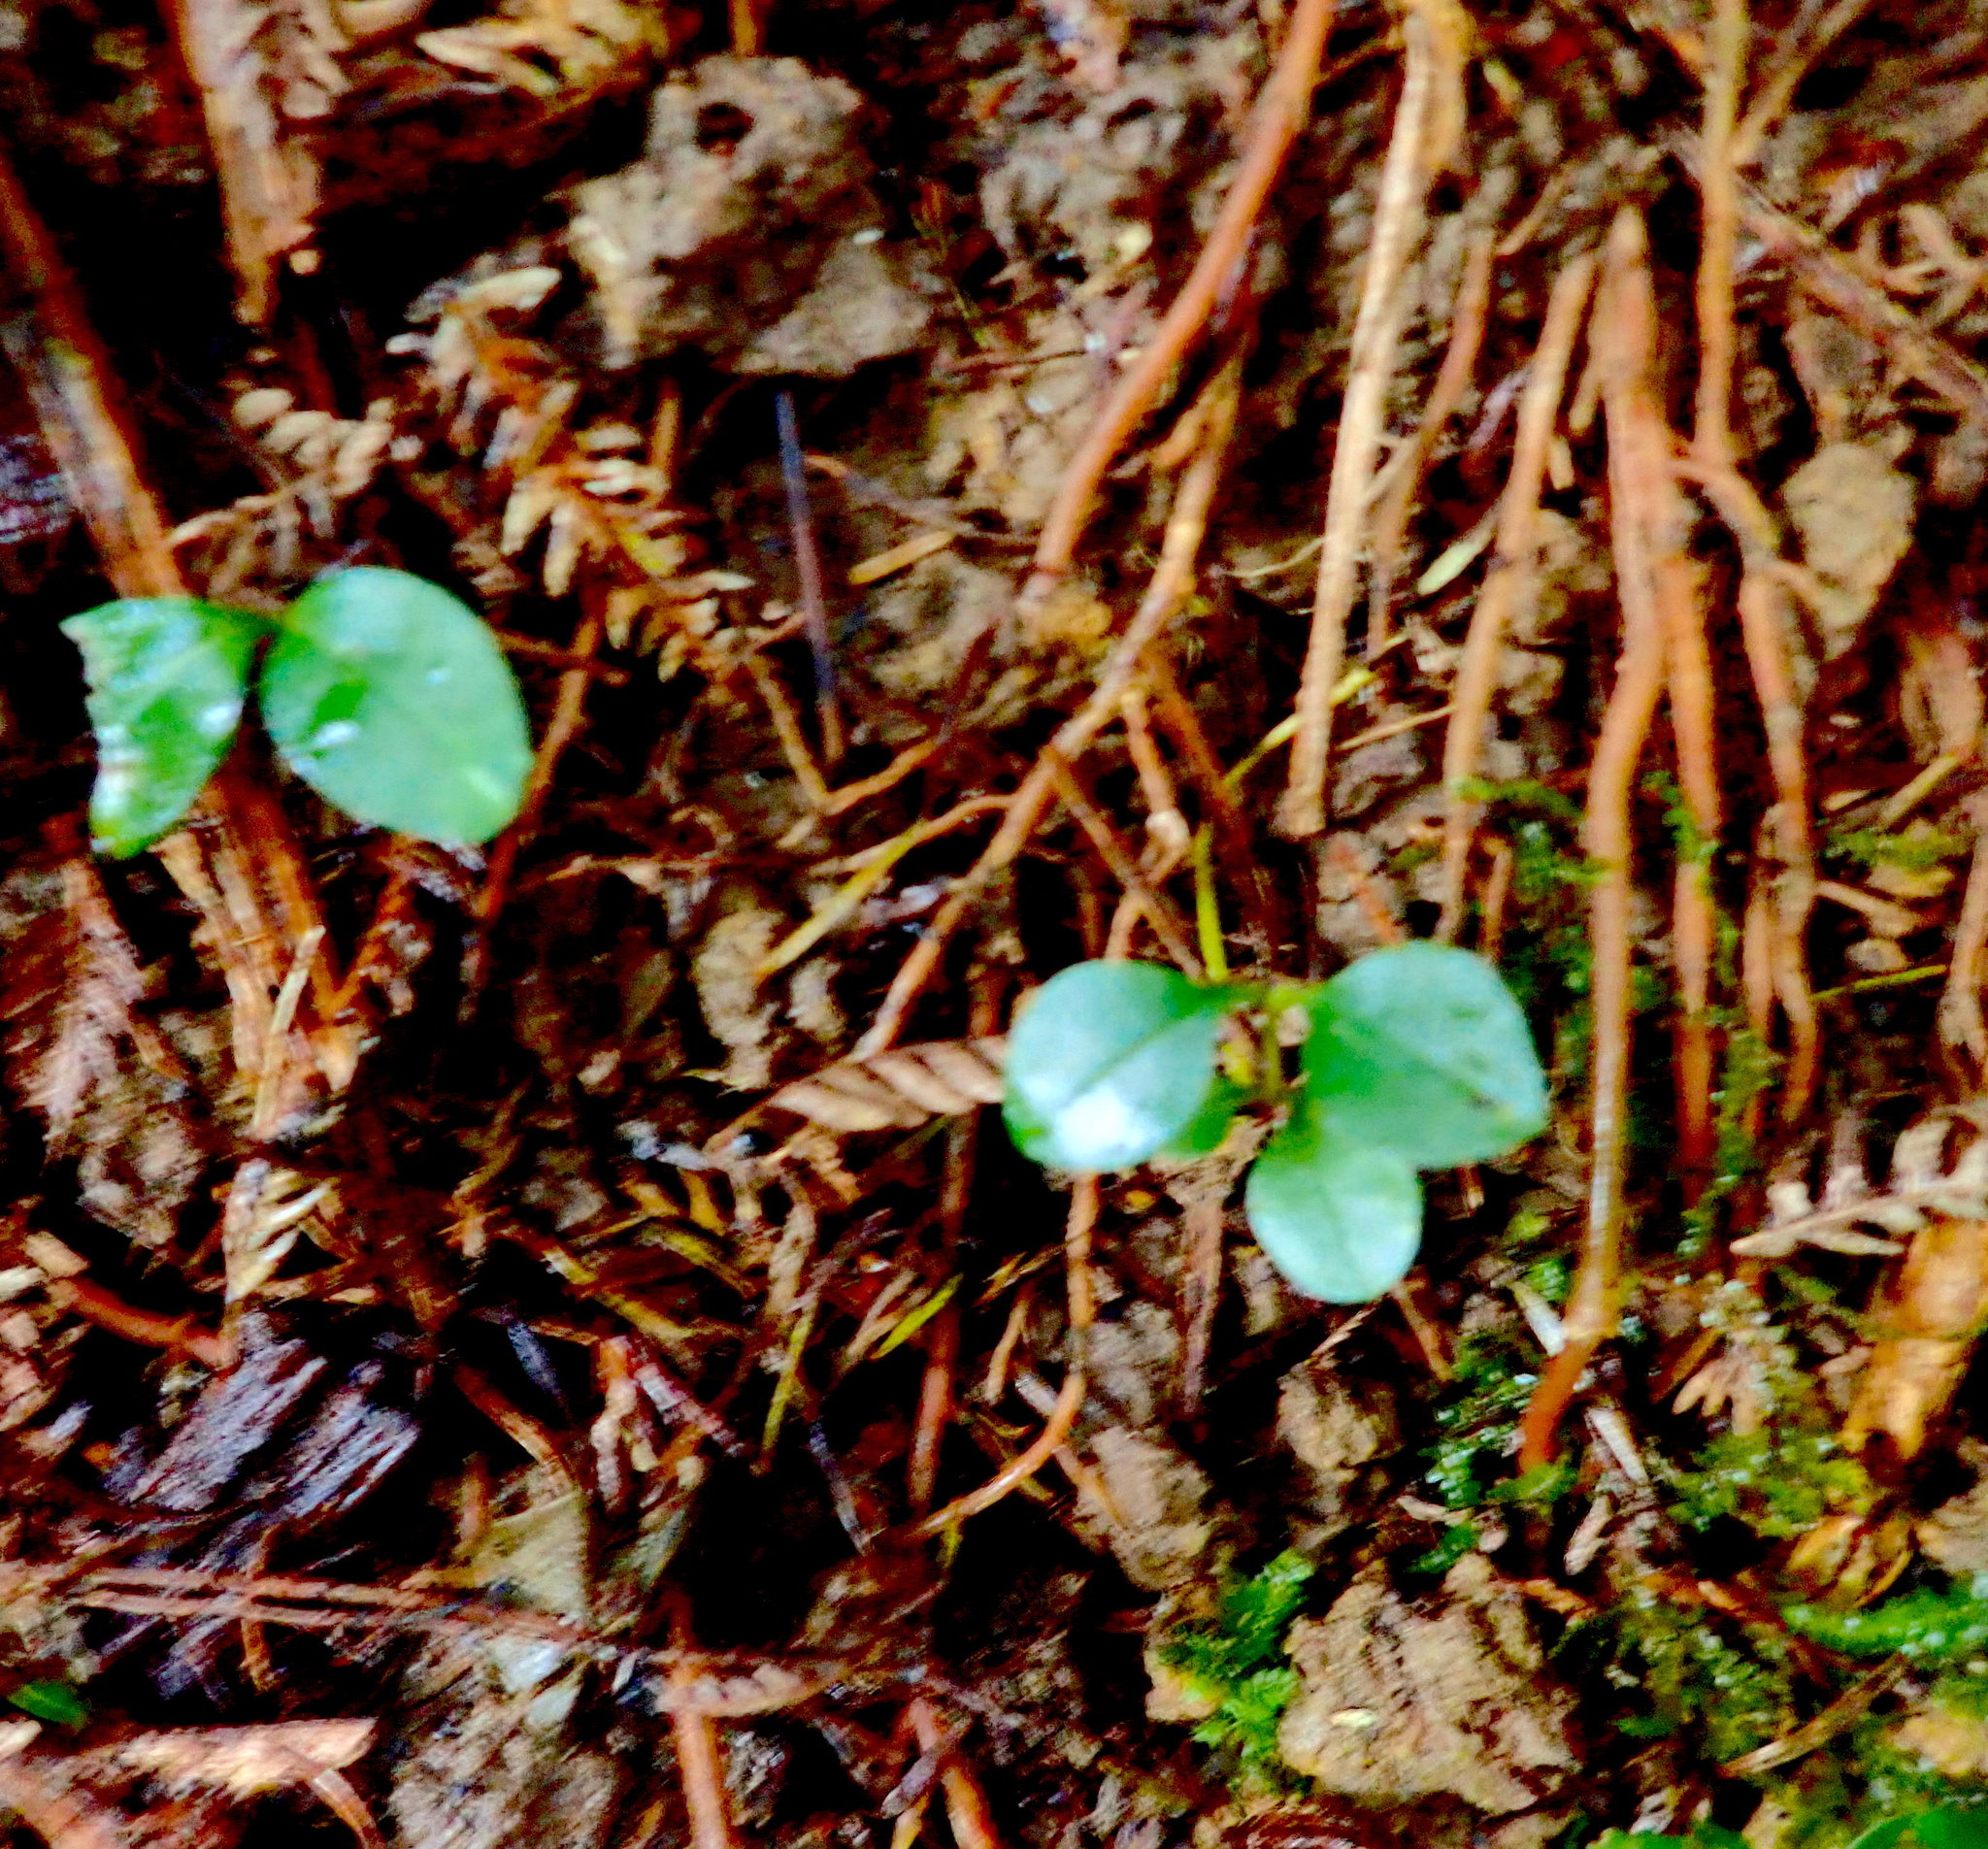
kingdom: Plantae
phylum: Tracheophyta
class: Magnoliopsida
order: Lamiales
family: Oleaceae
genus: Ligustrum
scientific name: Ligustrum lucidum
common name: Glossy privet
